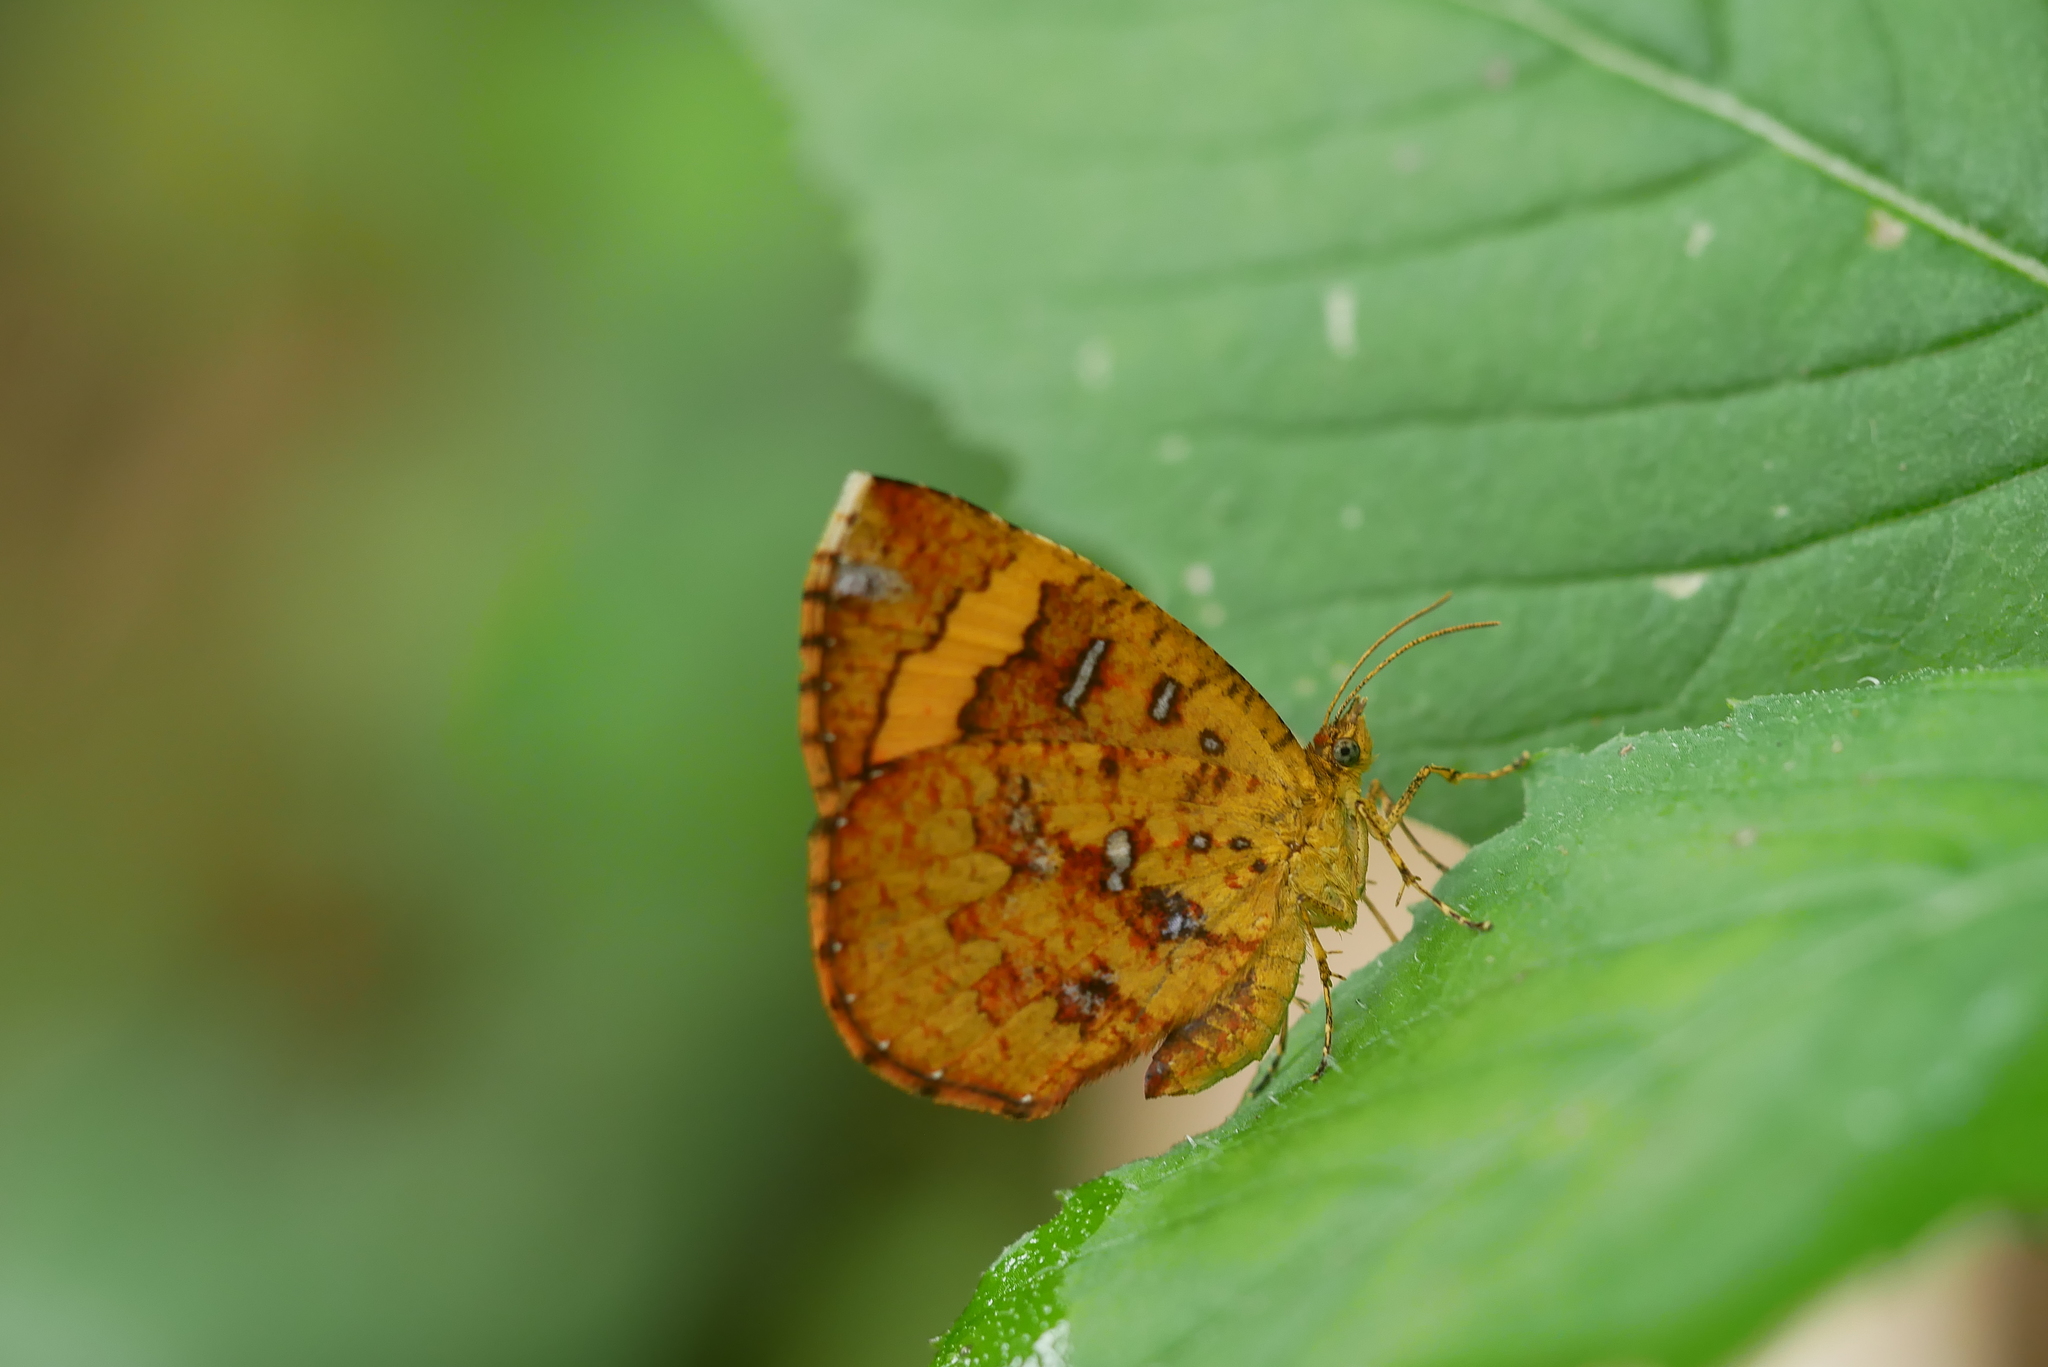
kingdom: Animalia
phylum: Arthropoda
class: Insecta
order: Lepidoptera
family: Callidulidae
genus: Petavia
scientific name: Petavia attenuata
